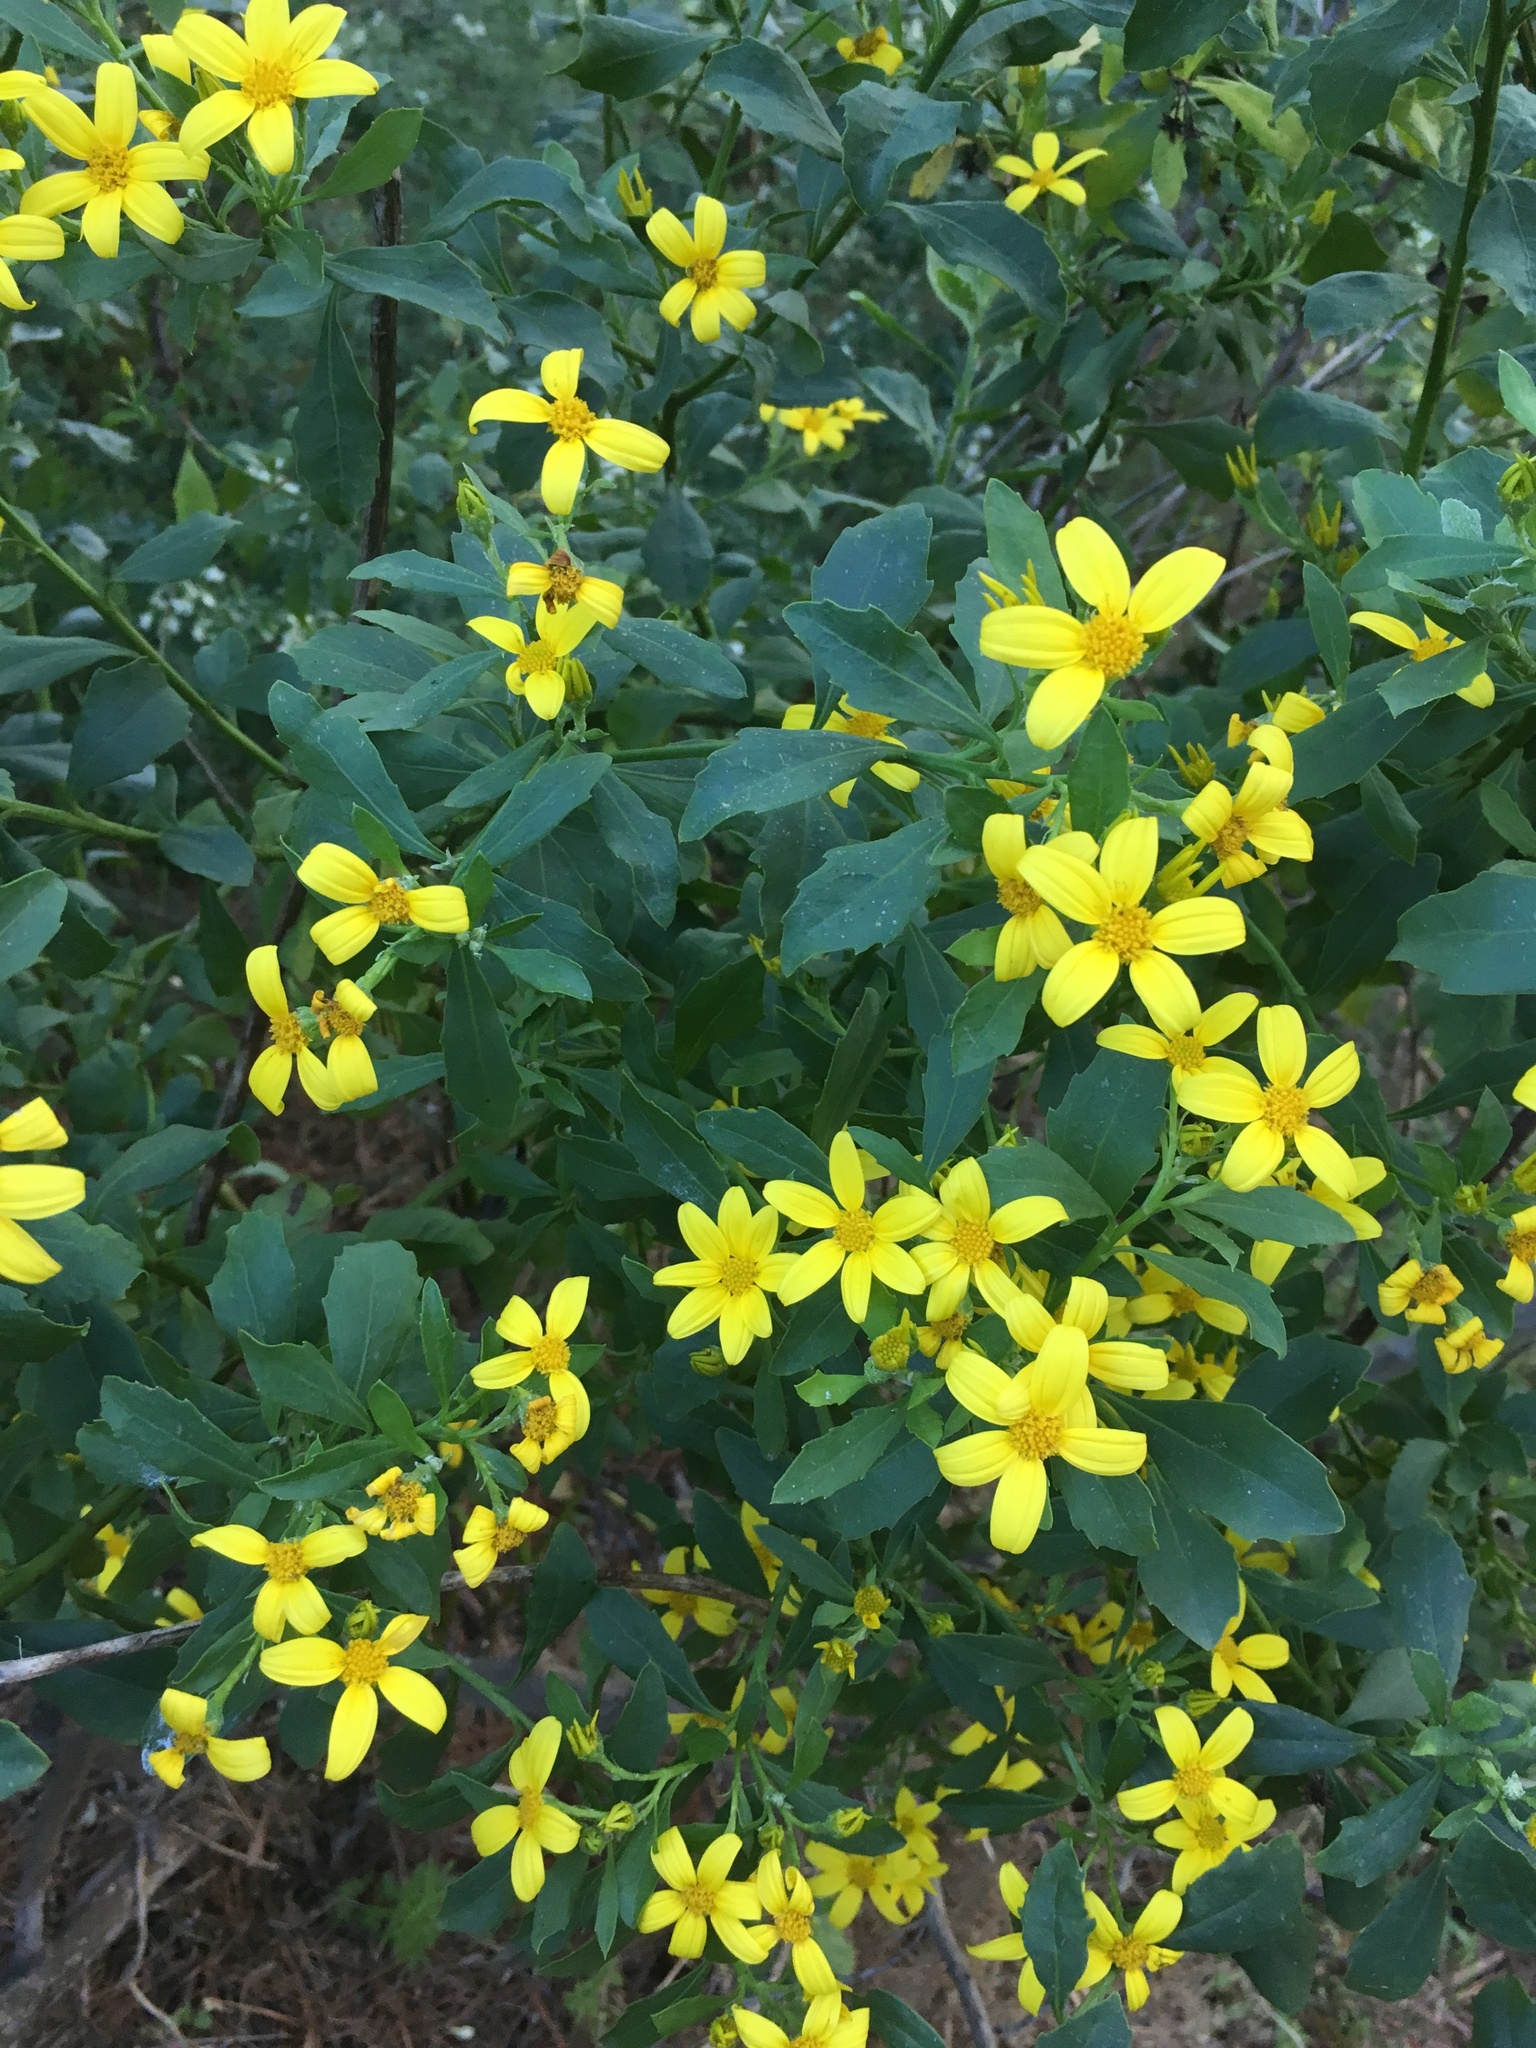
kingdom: Plantae
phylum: Tracheophyta
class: Magnoliopsida
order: Asterales
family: Asteraceae
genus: Osteospermum
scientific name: Osteospermum moniliferum
